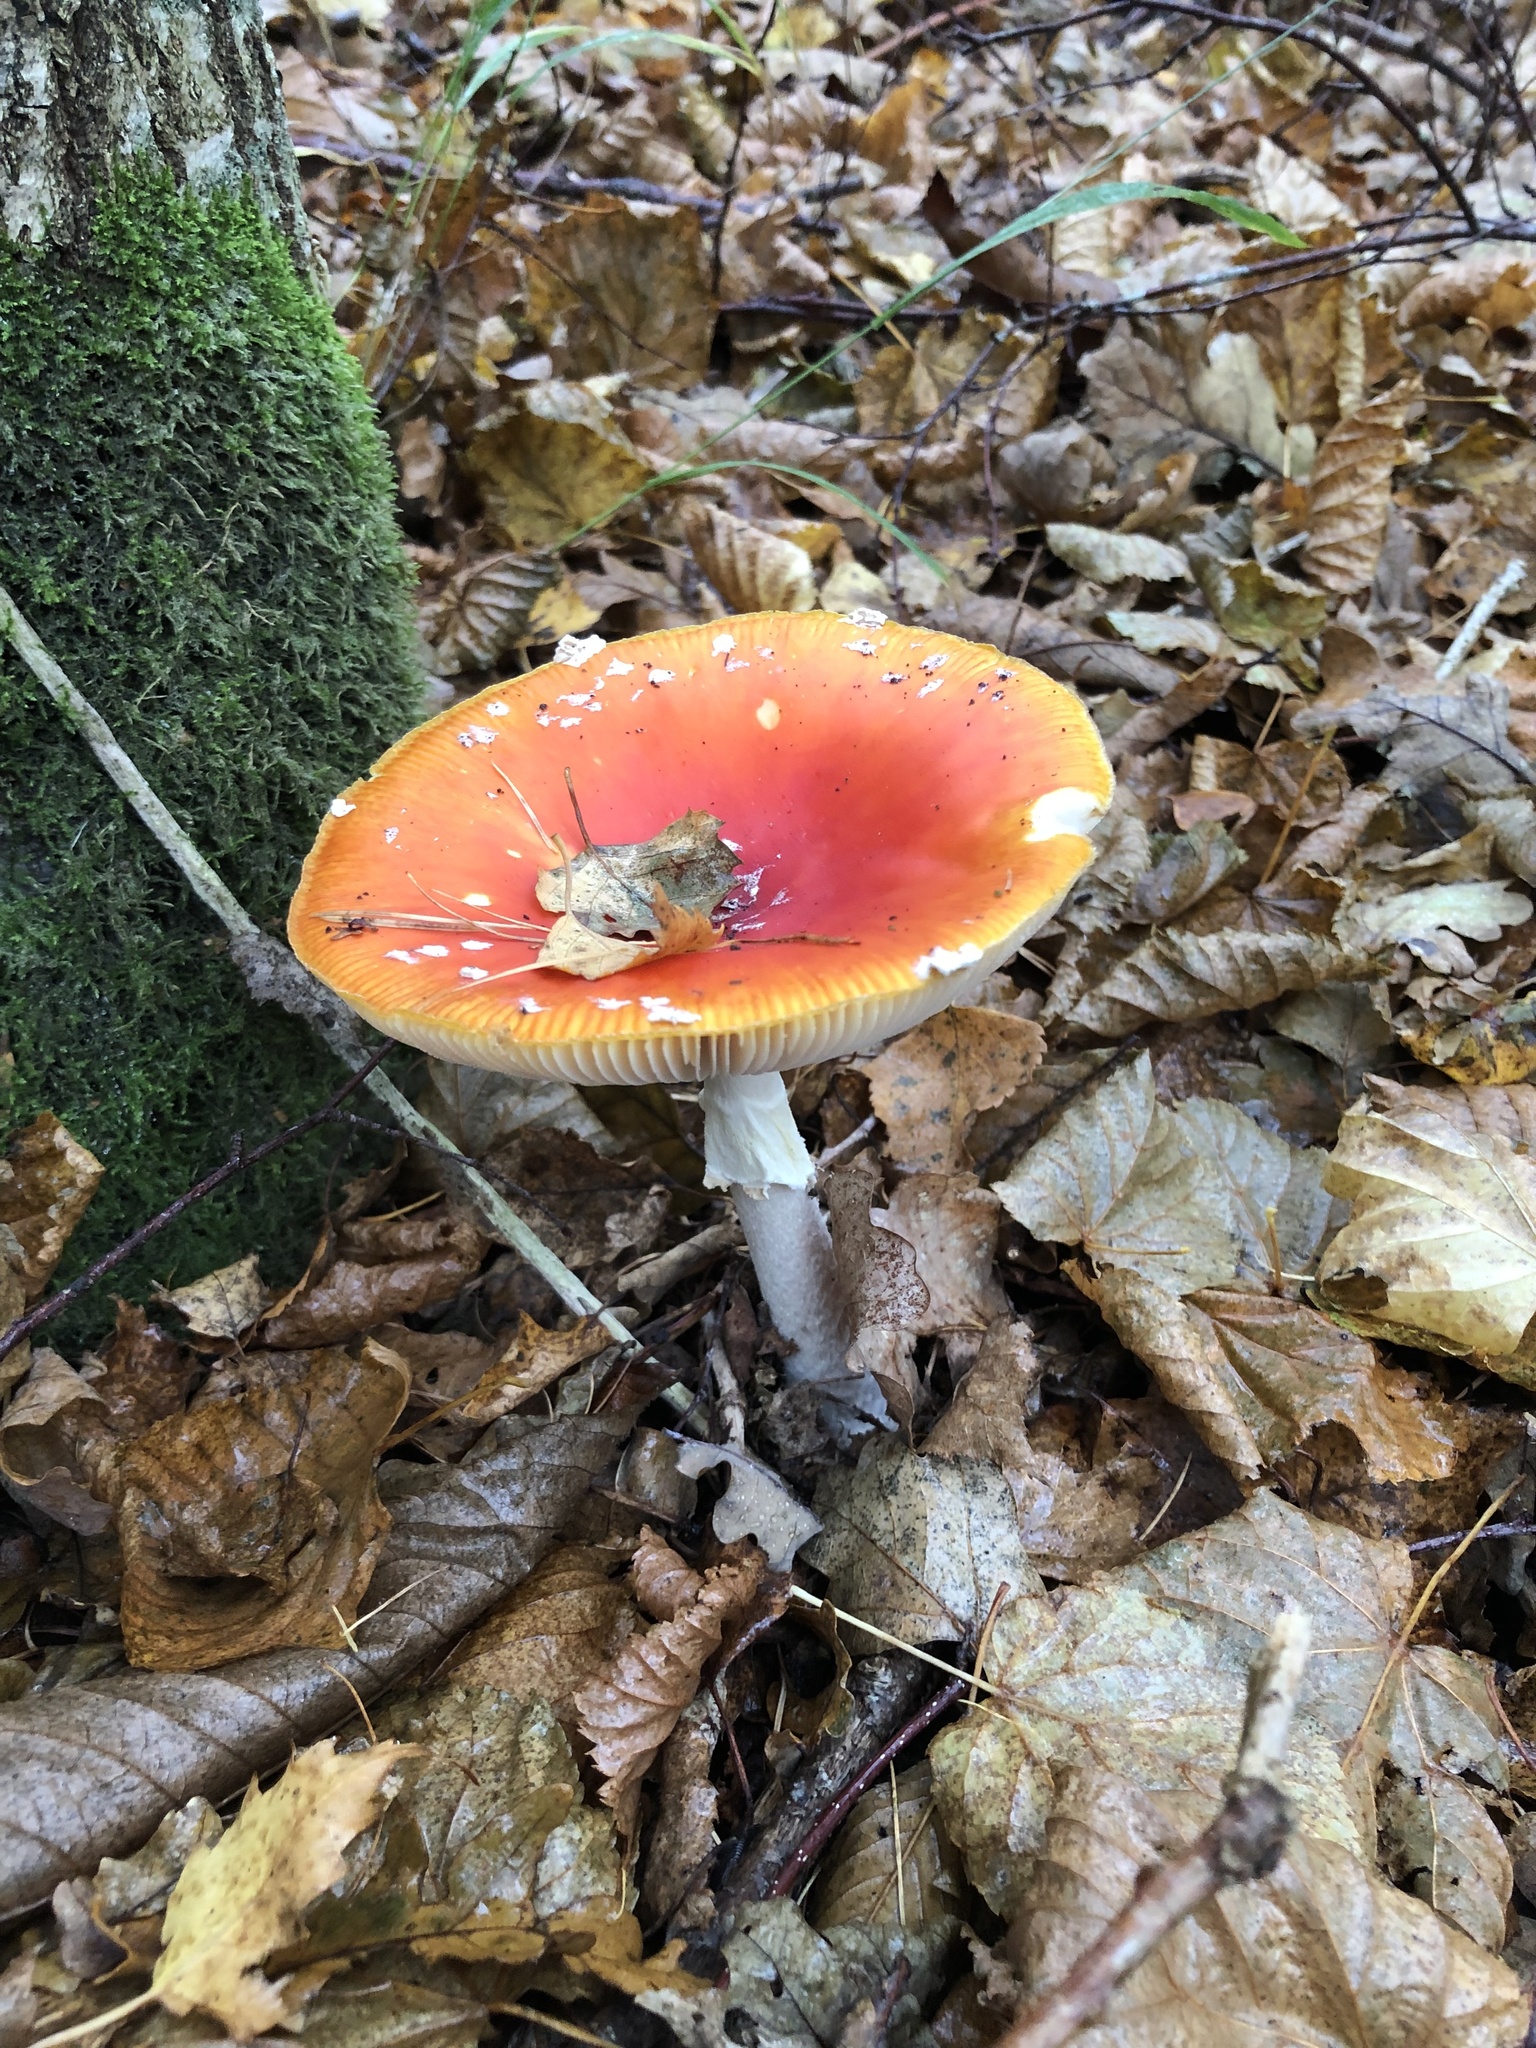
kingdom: Fungi
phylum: Basidiomycota
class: Agaricomycetes
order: Agaricales
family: Amanitaceae
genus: Amanita
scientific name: Amanita muscaria
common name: Fly agaric
